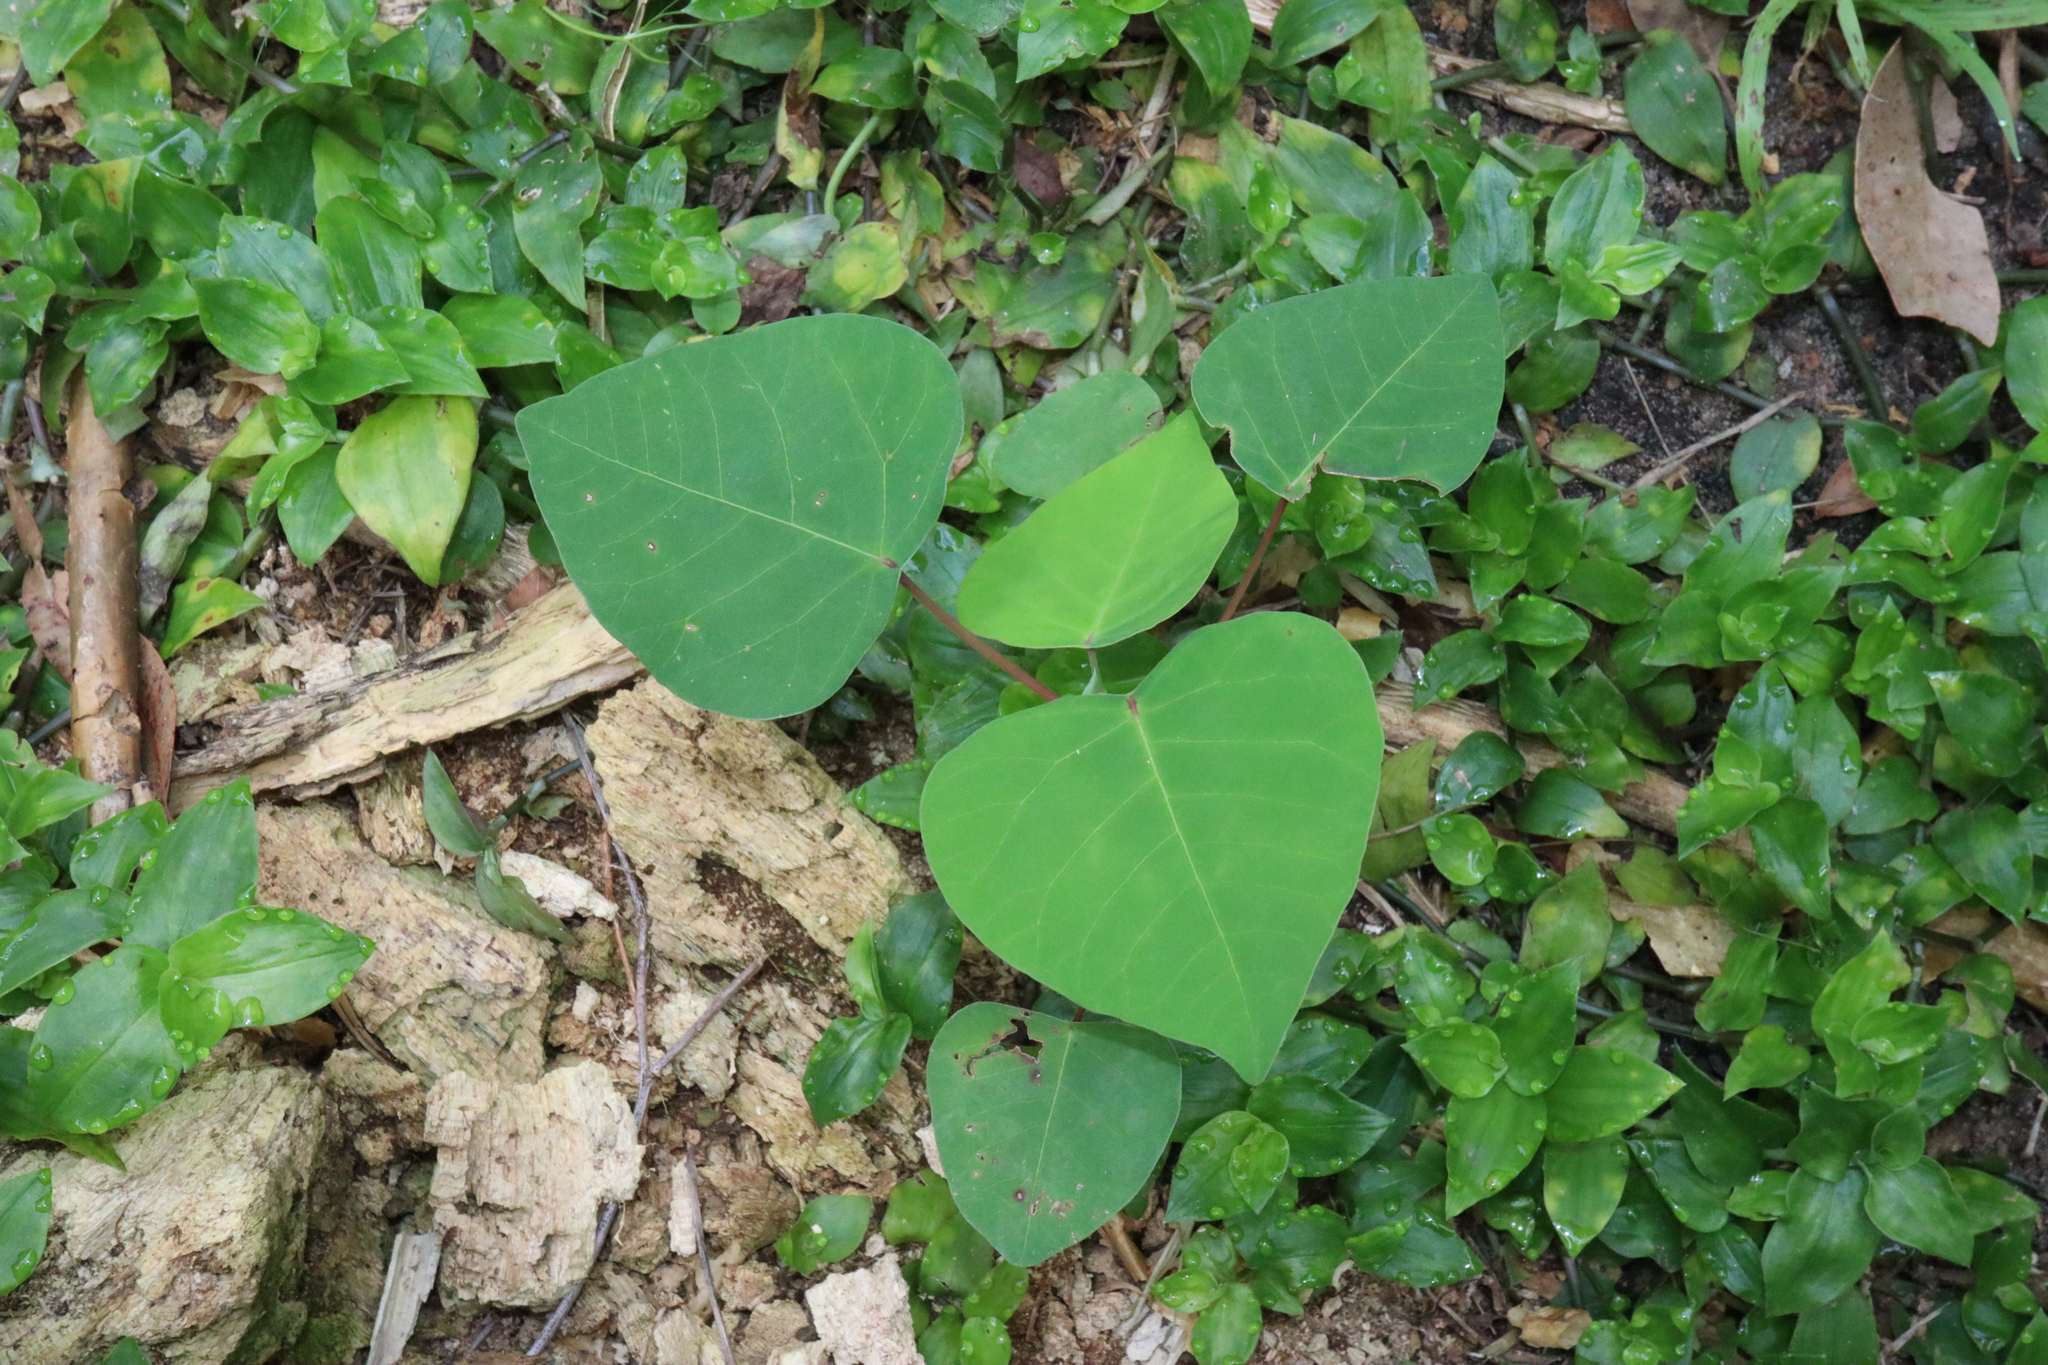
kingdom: Plantae
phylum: Tracheophyta
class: Magnoliopsida
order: Malpighiales
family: Euphorbiaceae
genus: Homalanthus
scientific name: Homalanthus populifolius
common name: Queensland poplar
